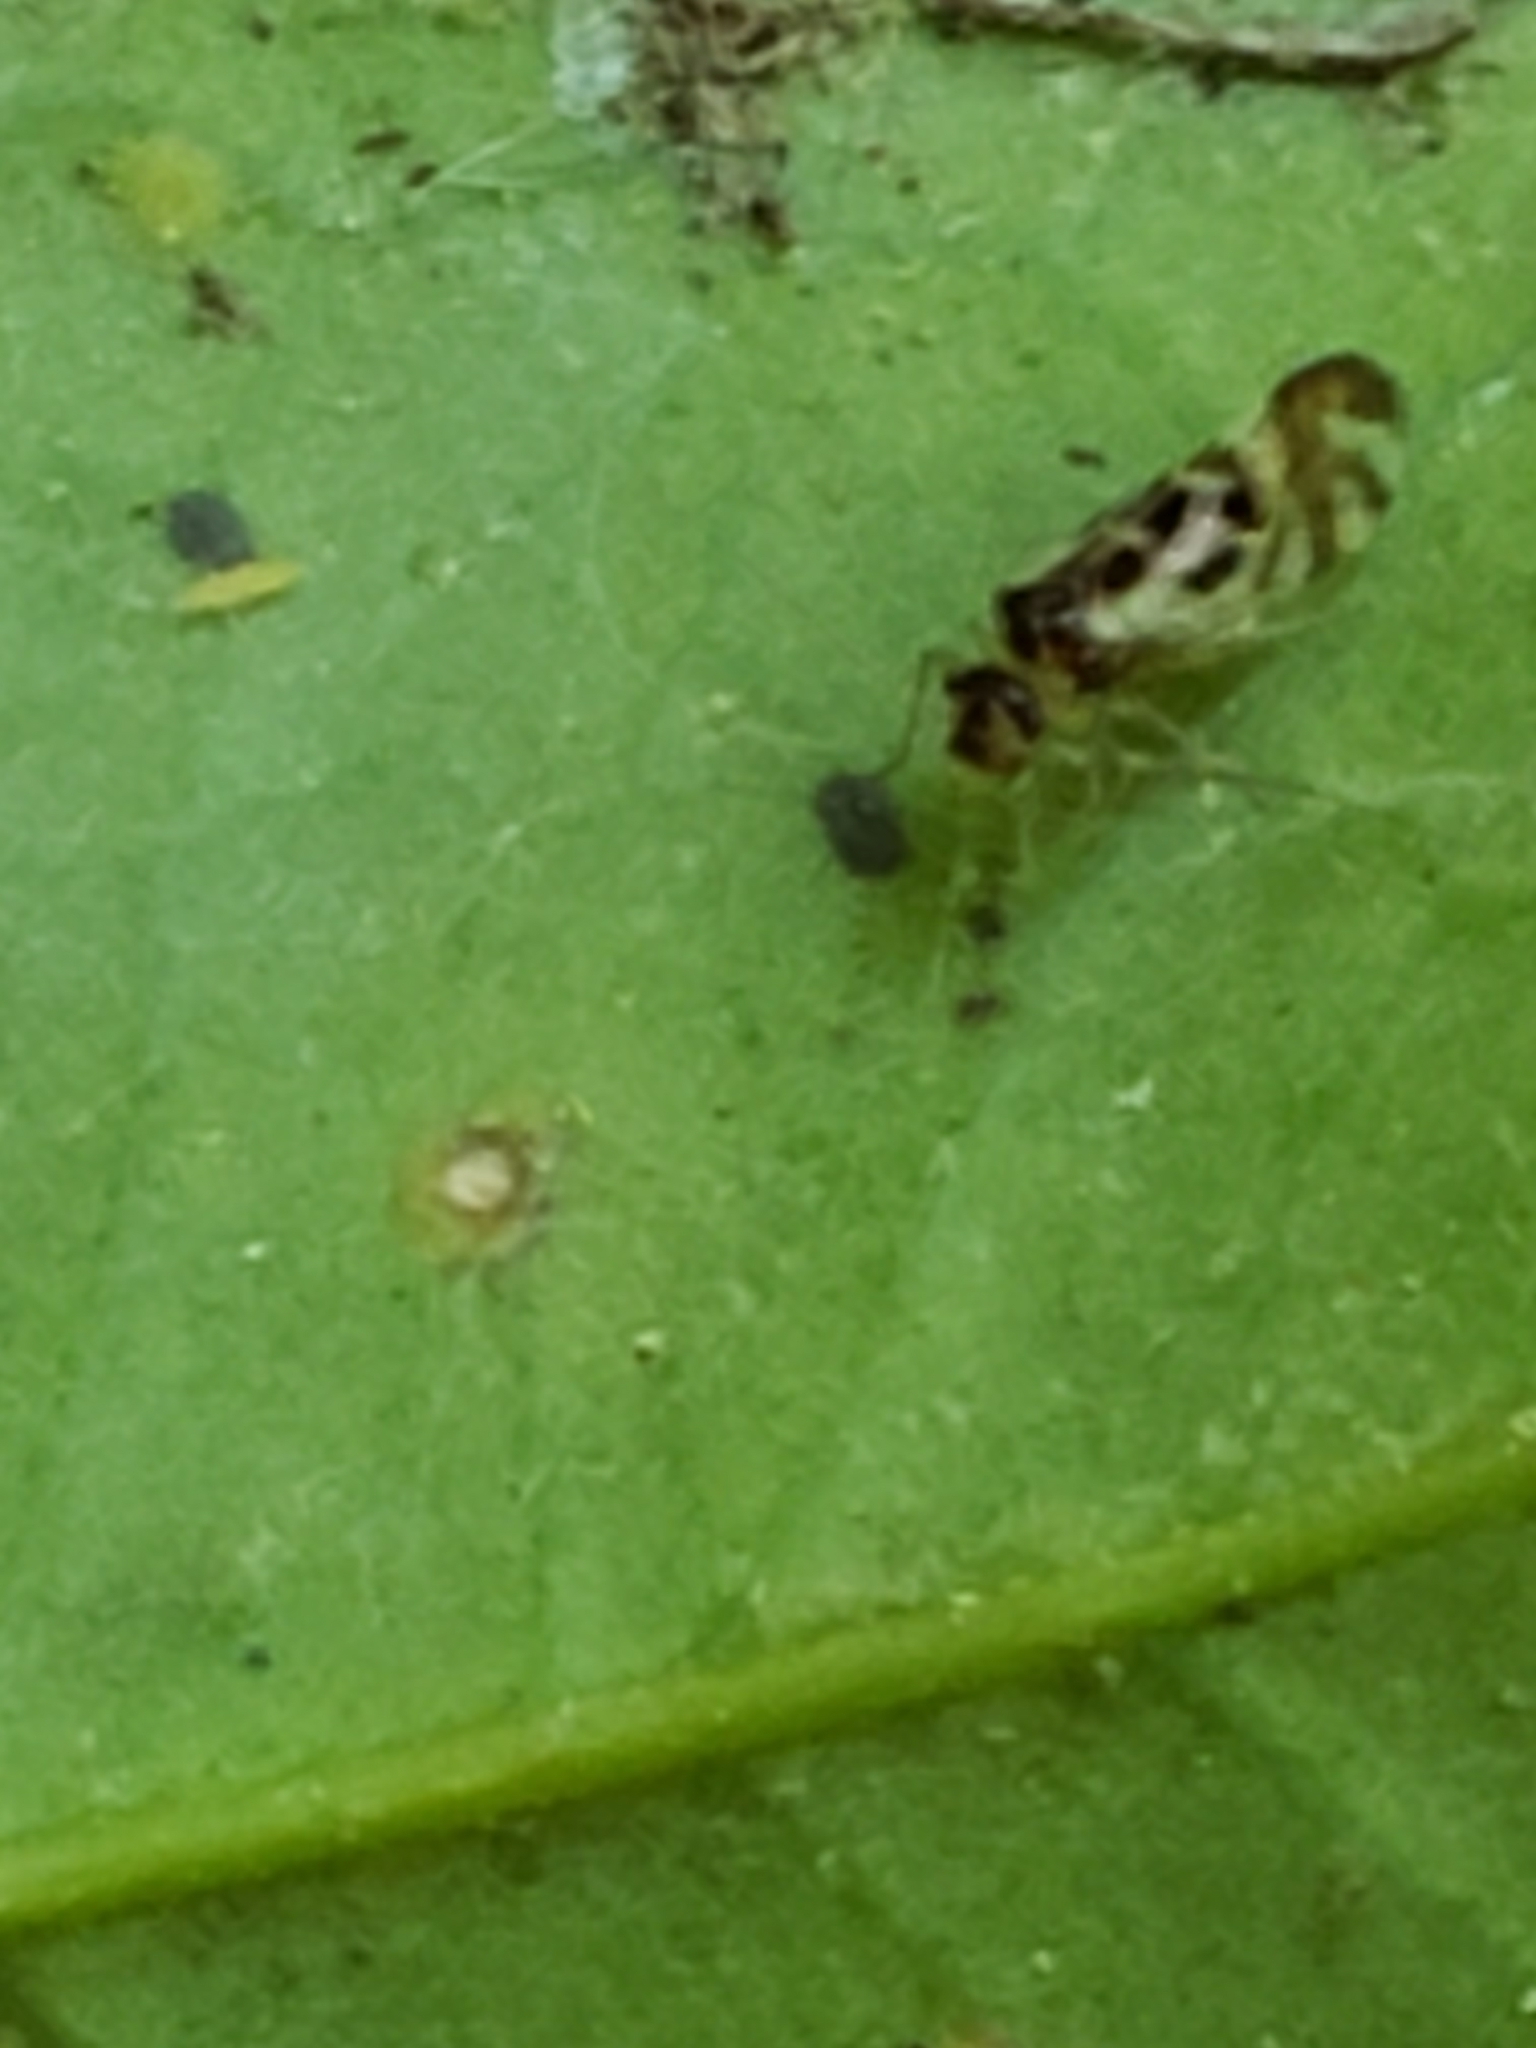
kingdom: Animalia
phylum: Arthropoda
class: Insecta
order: Psocodea
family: Stenopsocidae
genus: Graphopsocus
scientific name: Graphopsocus cruciatus
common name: Lizard bark louse
